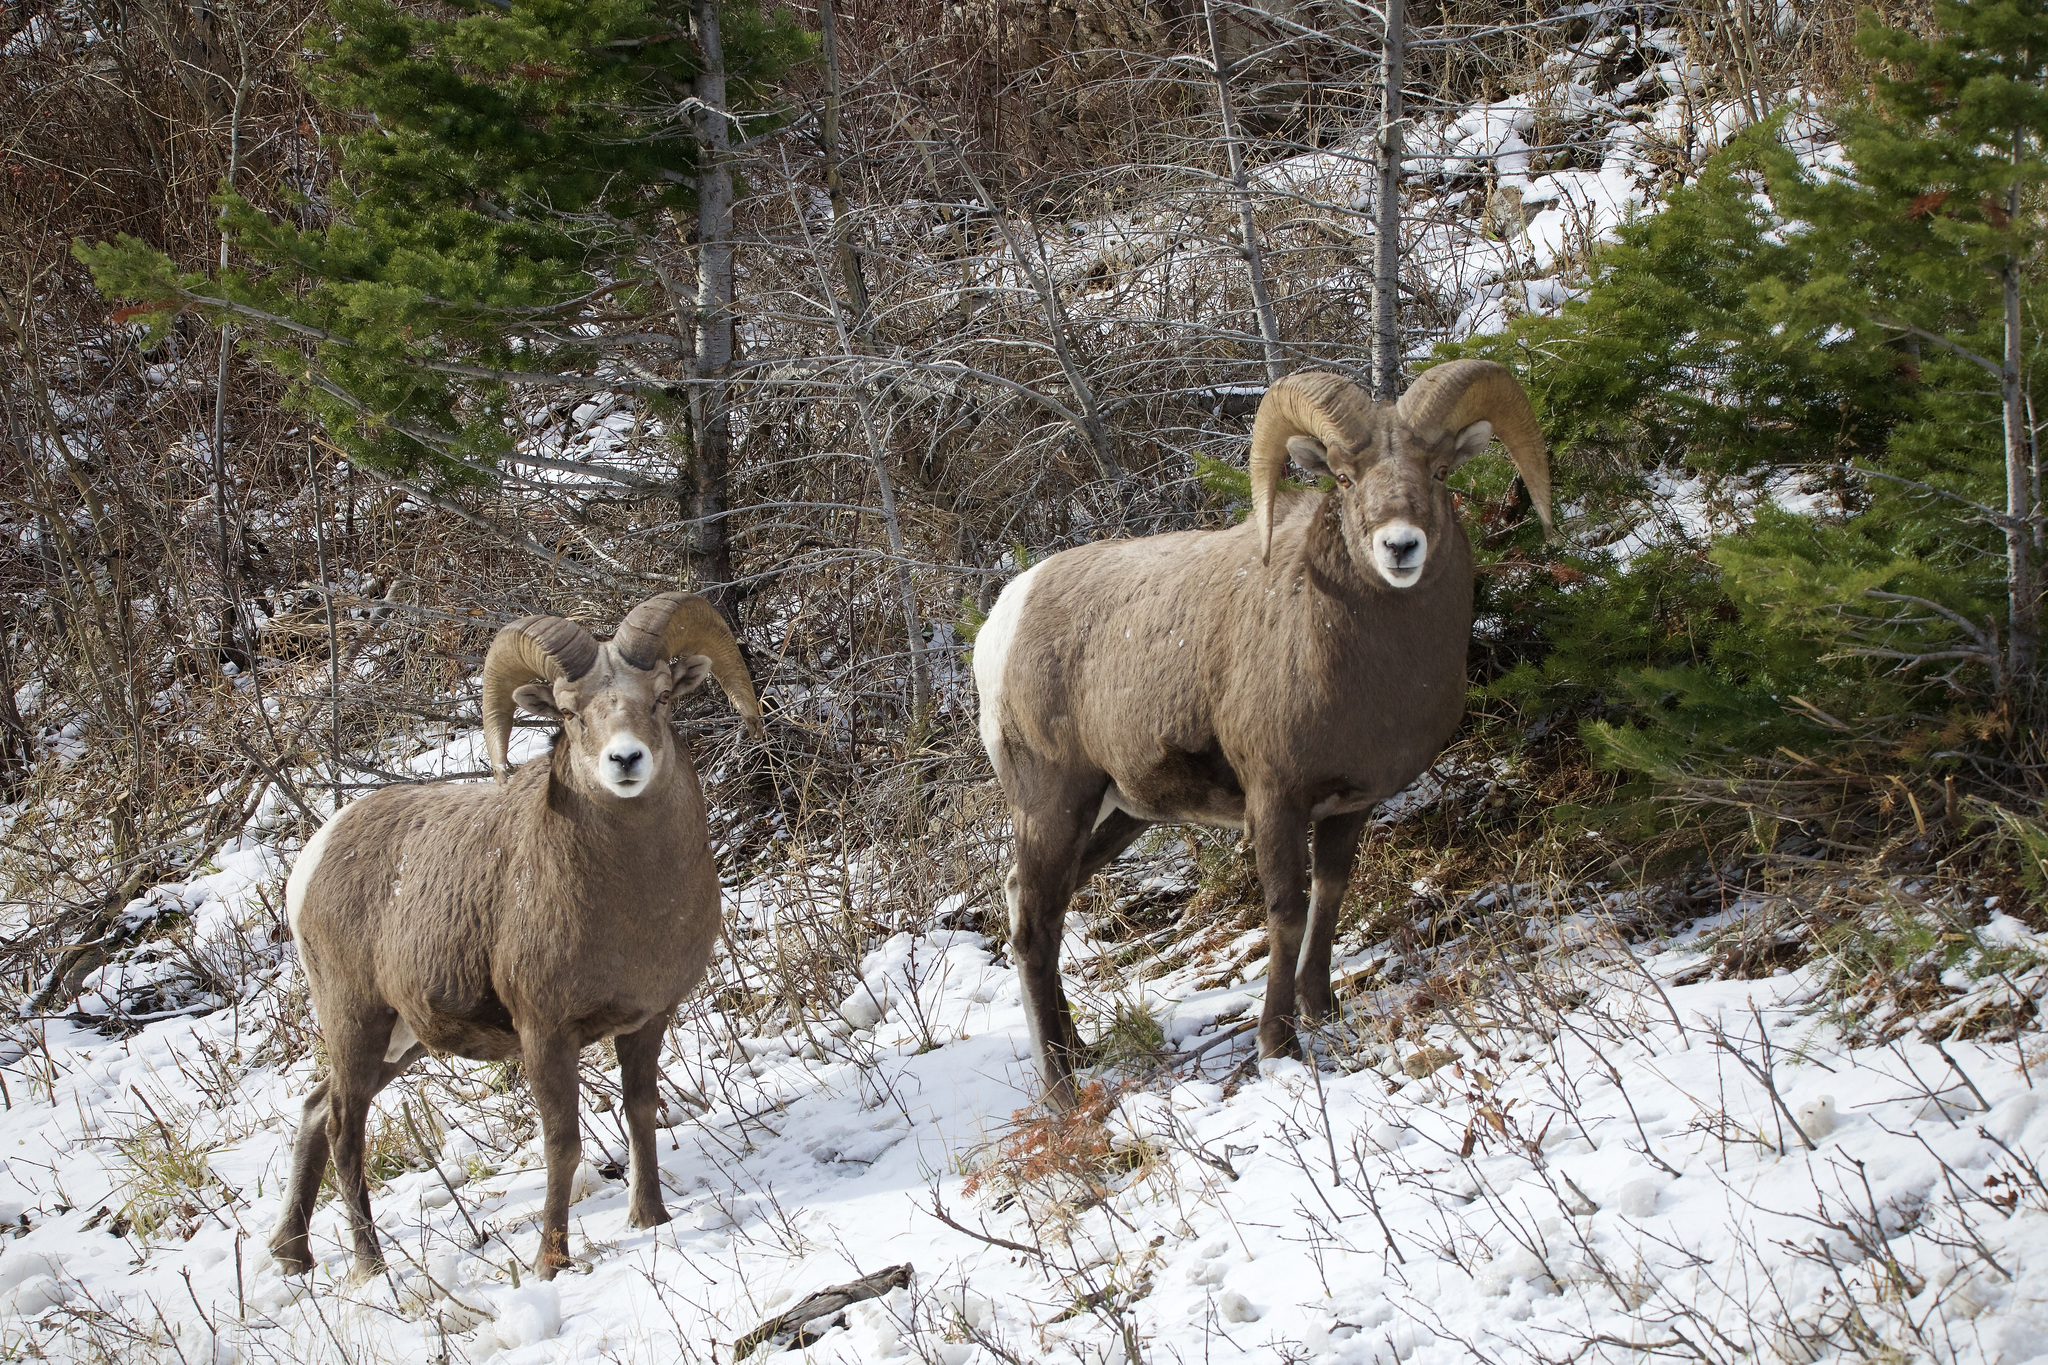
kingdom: Animalia
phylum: Chordata
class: Mammalia
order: Artiodactyla
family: Bovidae
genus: Ovis
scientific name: Ovis canadensis
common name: Bighorn sheep
